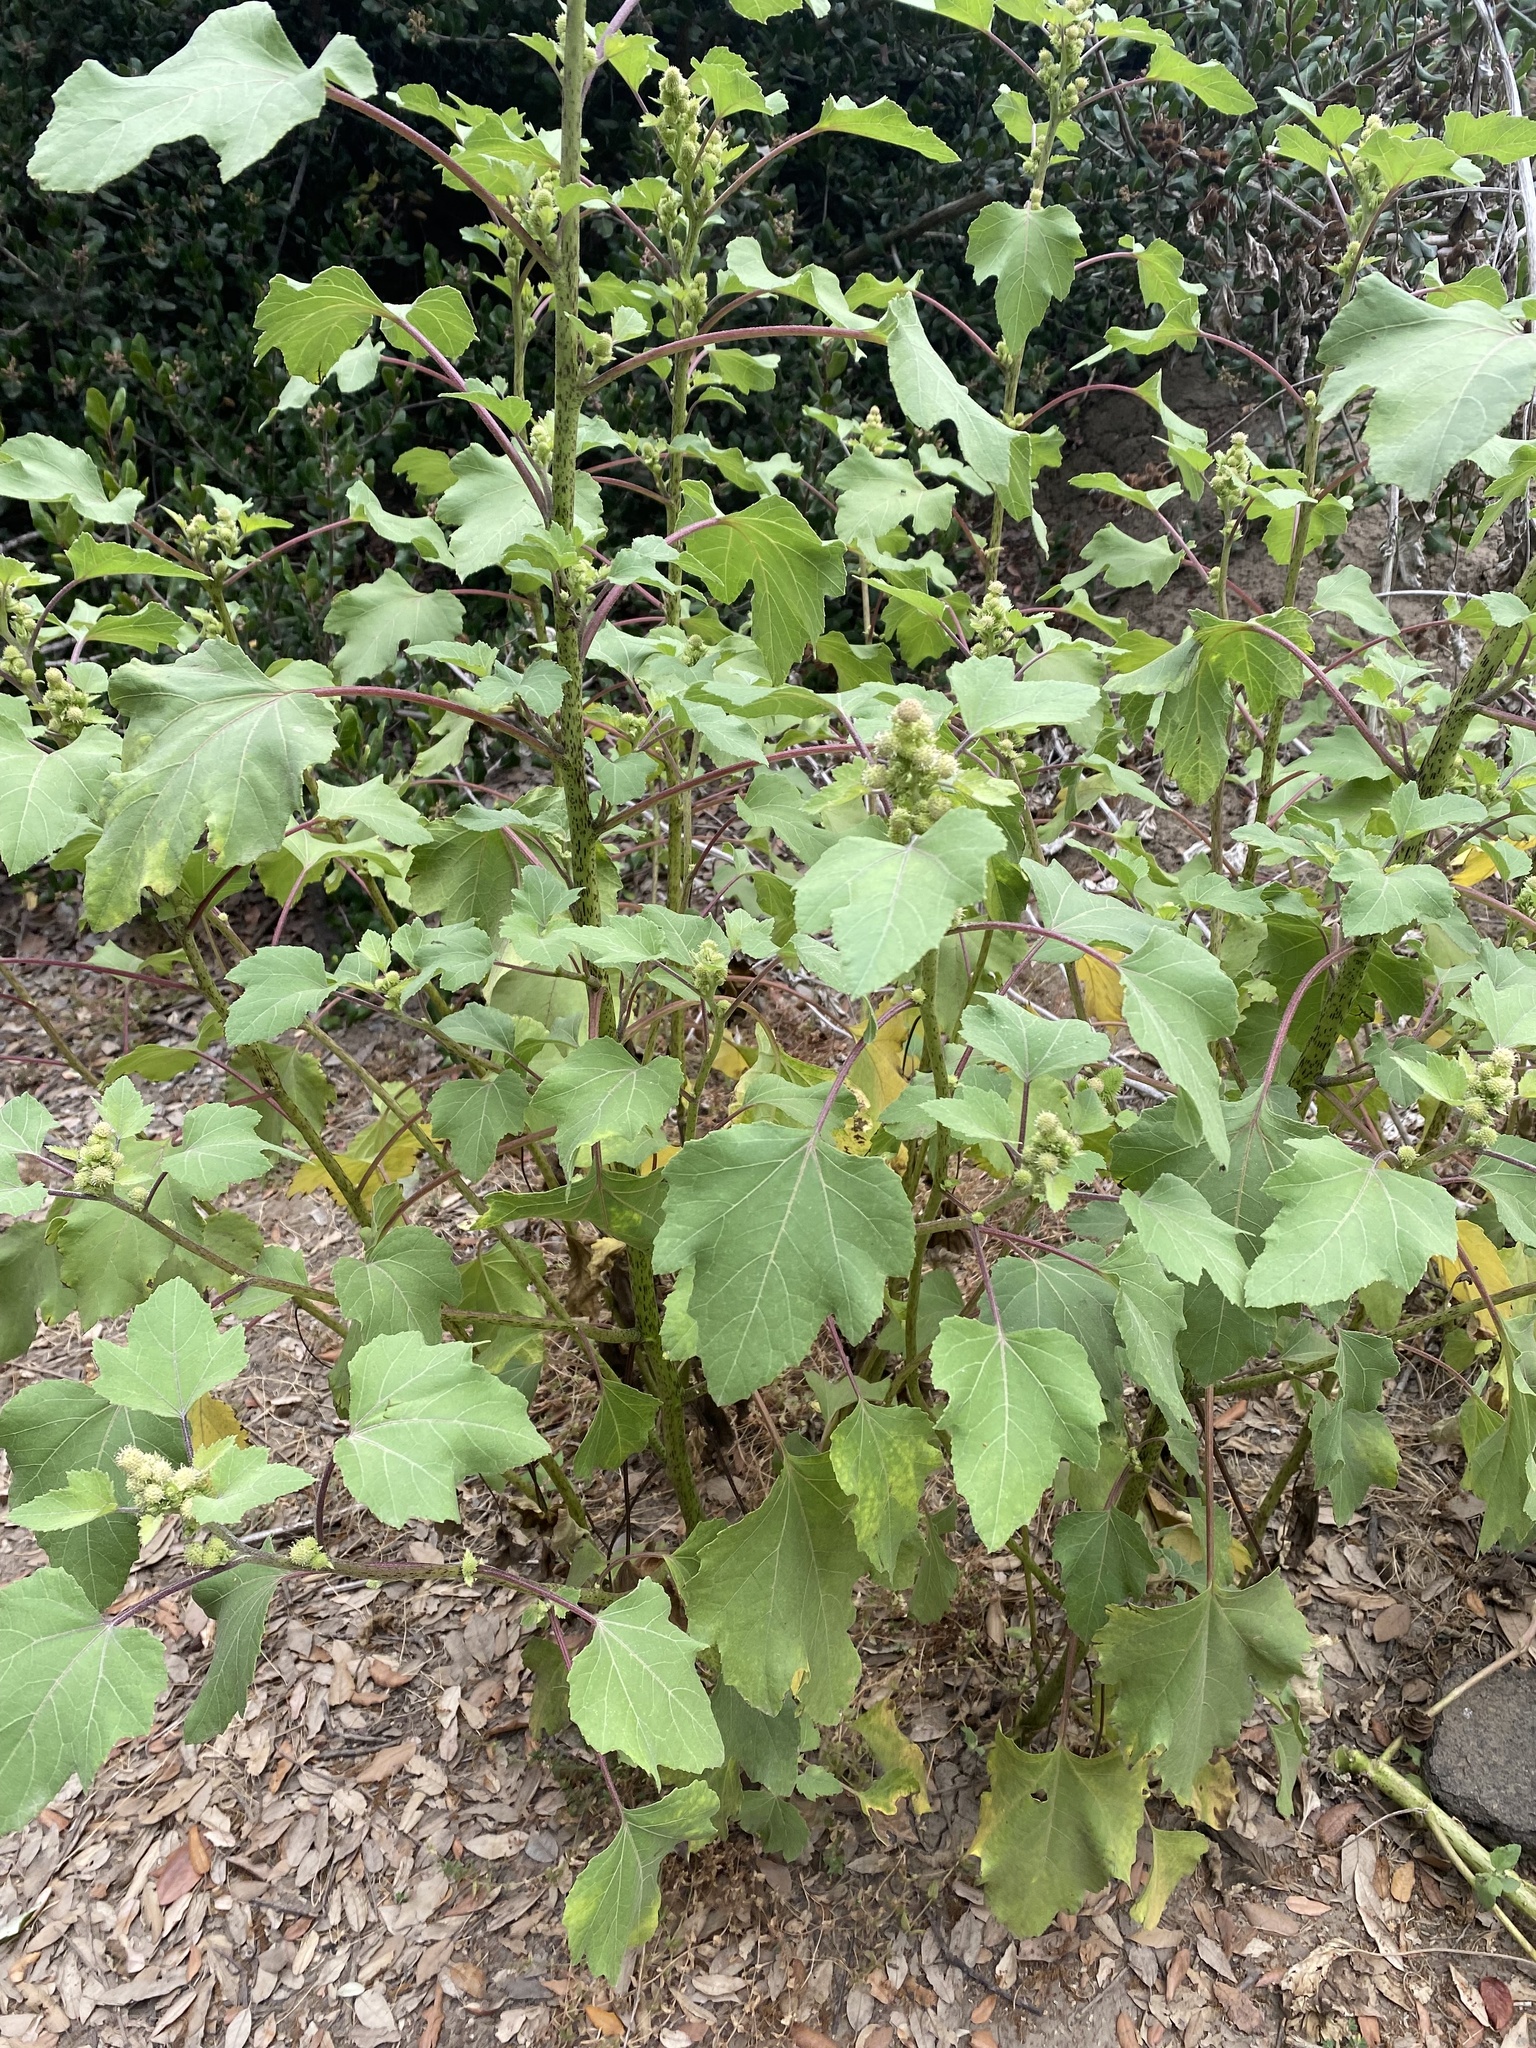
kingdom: Plantae
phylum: Tracheophyta
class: Magnoliopsida
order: Asterales
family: Asteraceae
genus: Xanthium
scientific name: Xanthium strumarium
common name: Rough cocklebur
